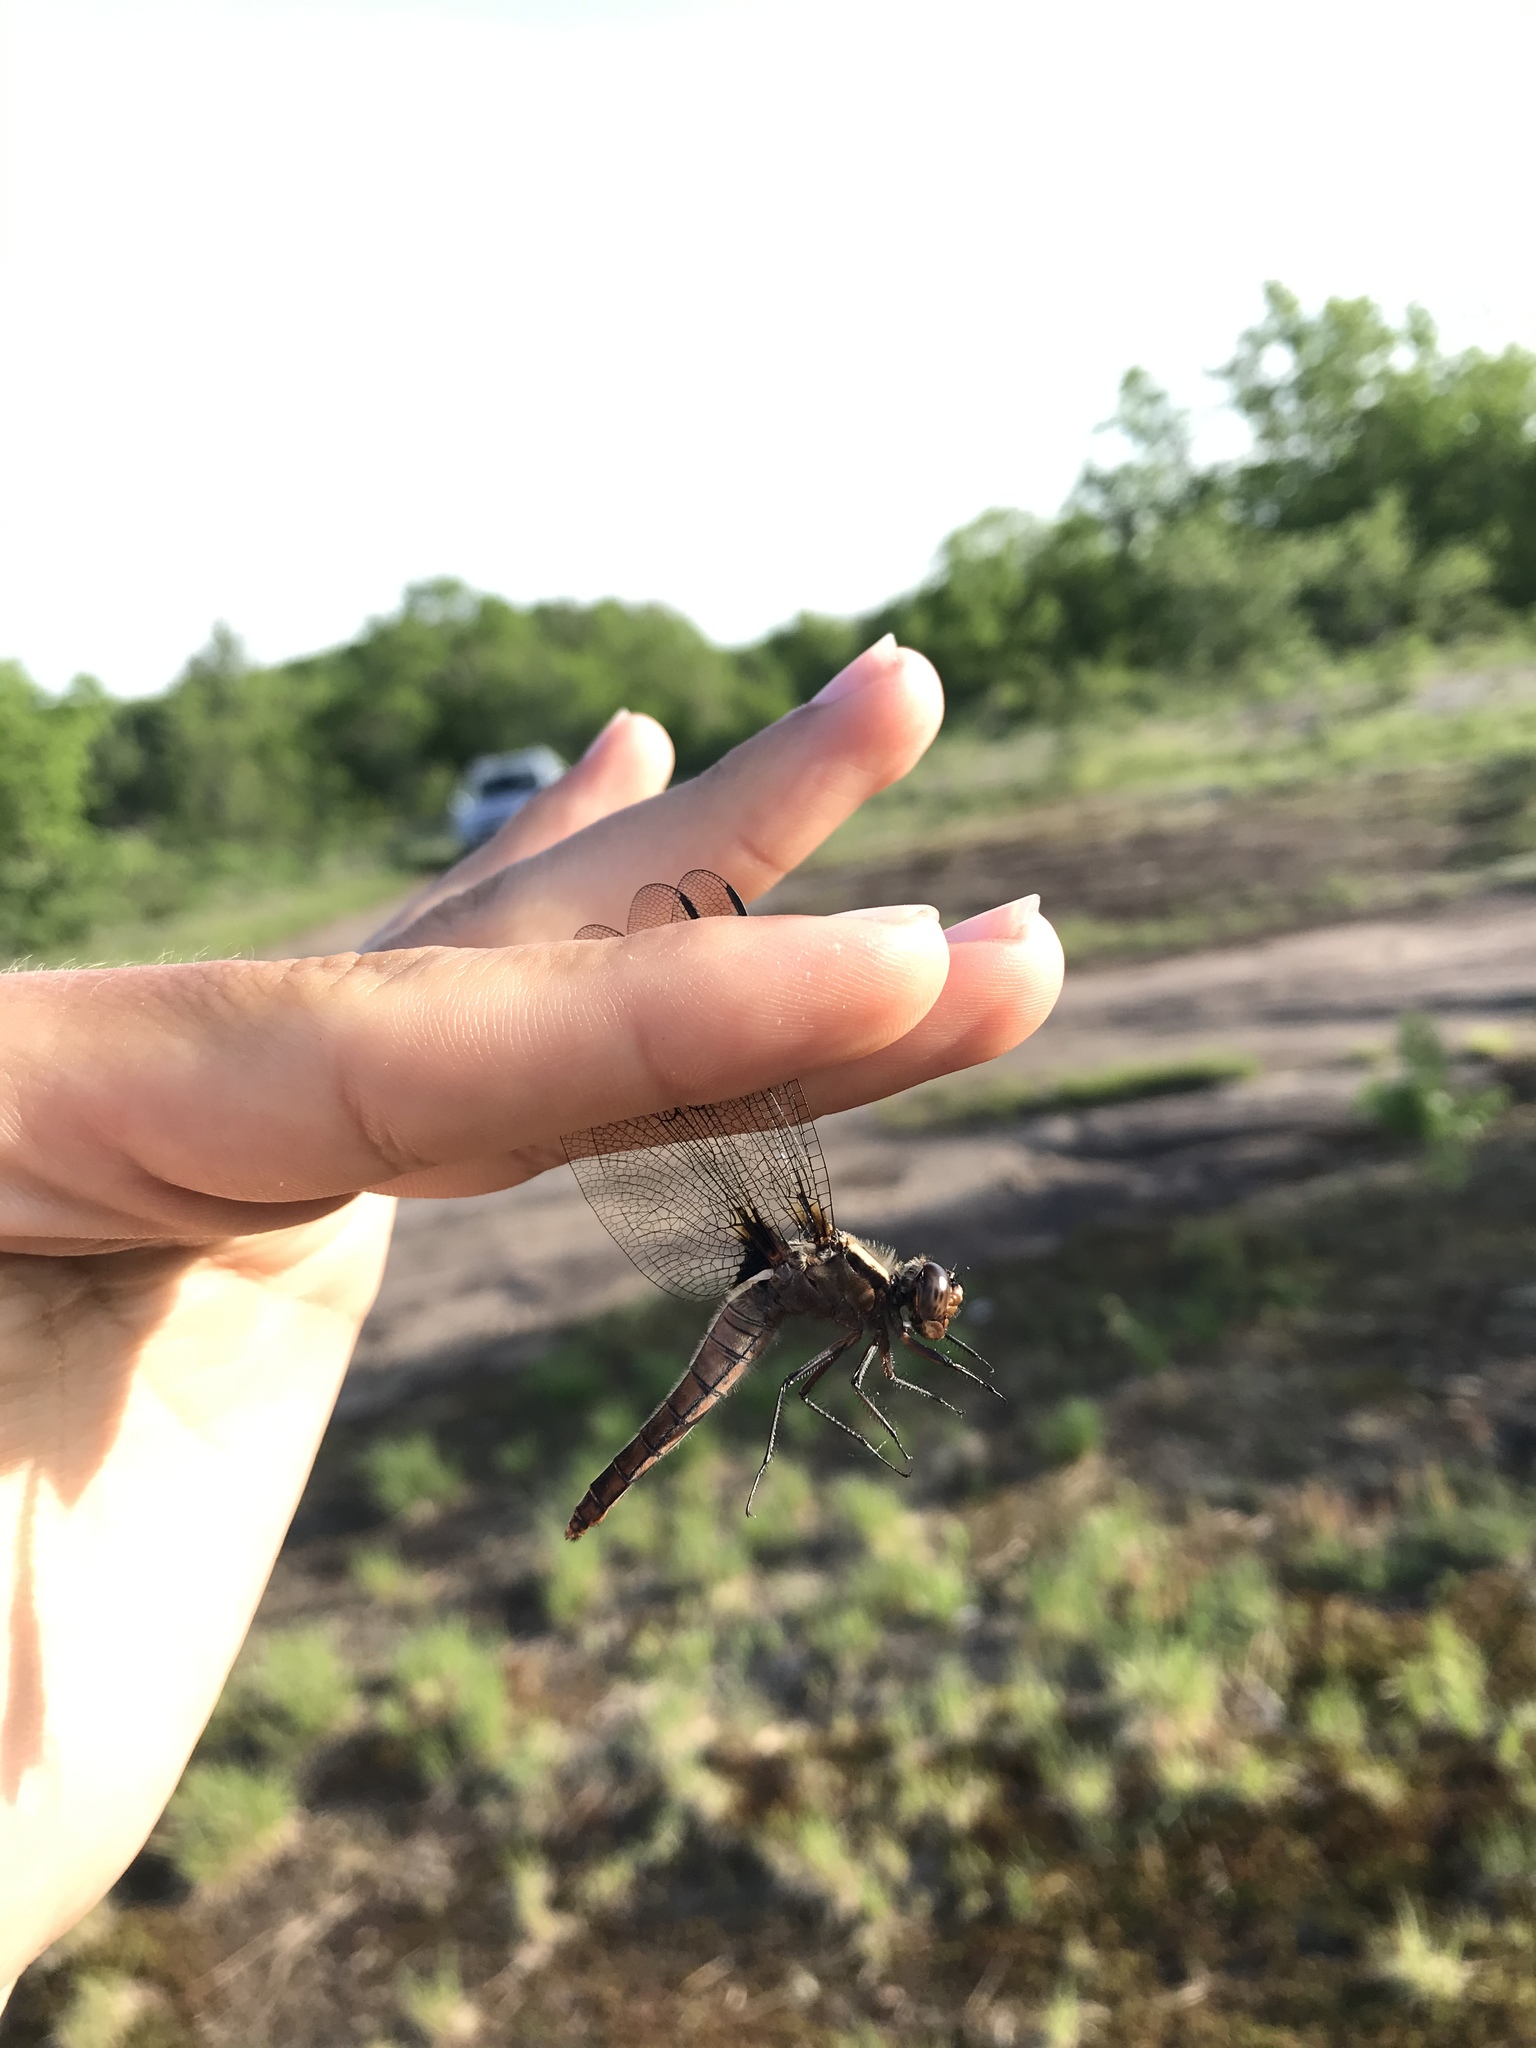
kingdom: Animalia
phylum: Arthropoda
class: Insecta
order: Odonata
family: Libellulidae
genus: Ladona
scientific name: Ladona julia
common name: Chalk-fronted corporal
